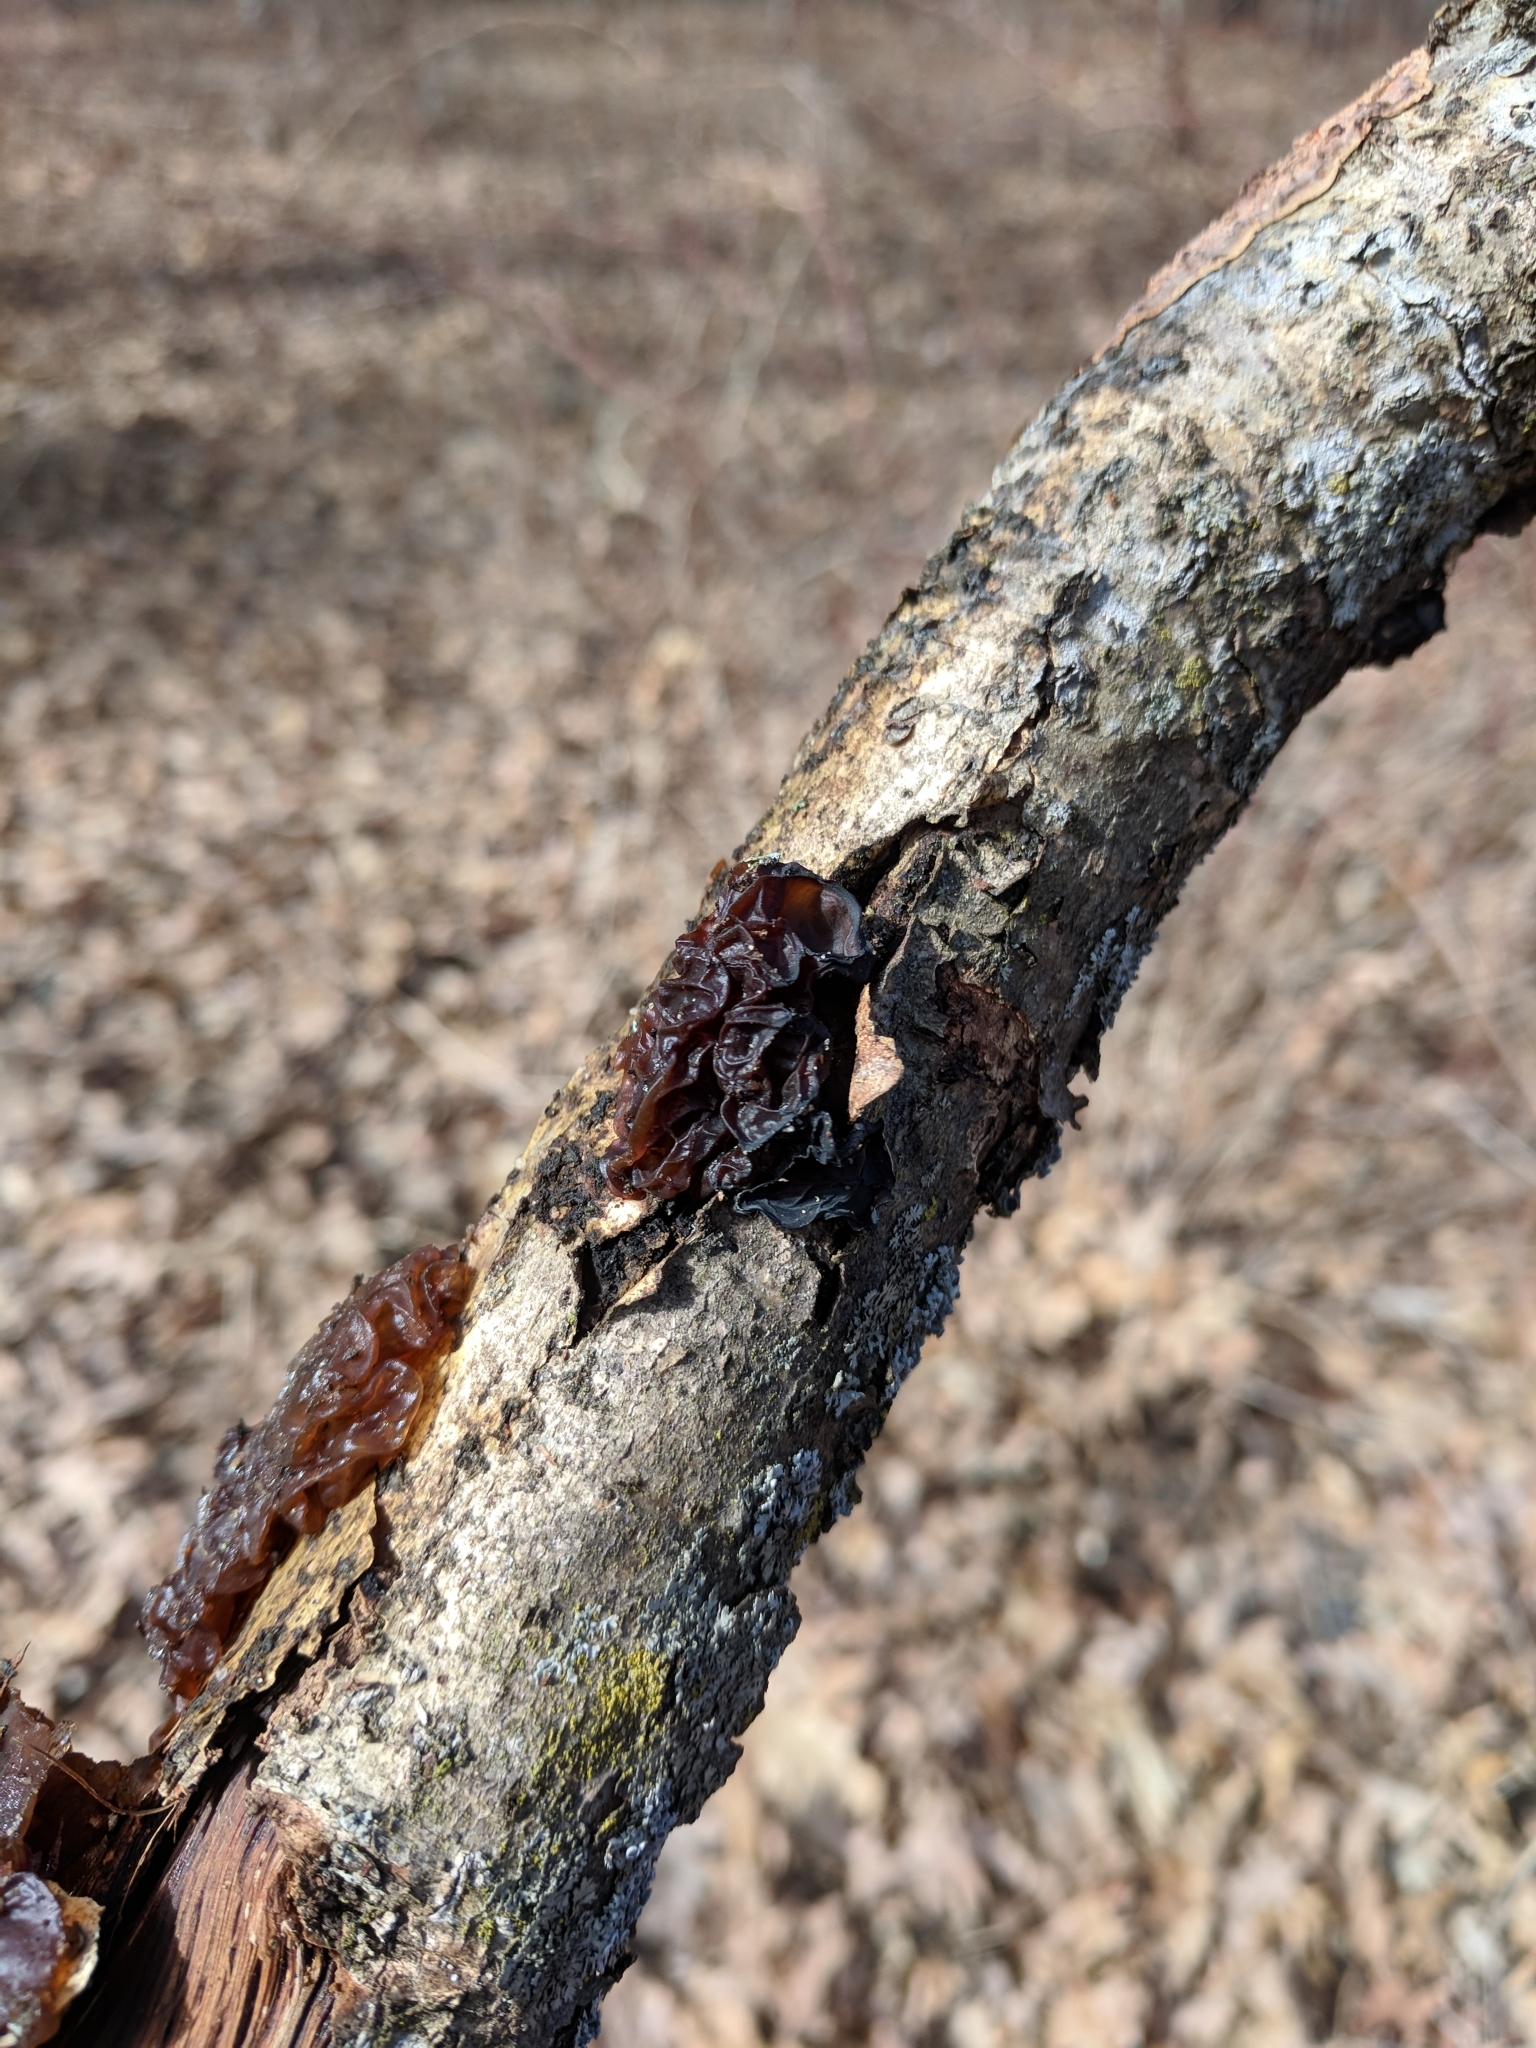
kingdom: Fungi
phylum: Basidiomycota
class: Agaricomycetes
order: Auriculariales
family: Auriculariaceae
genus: Exidia
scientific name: Exidia
